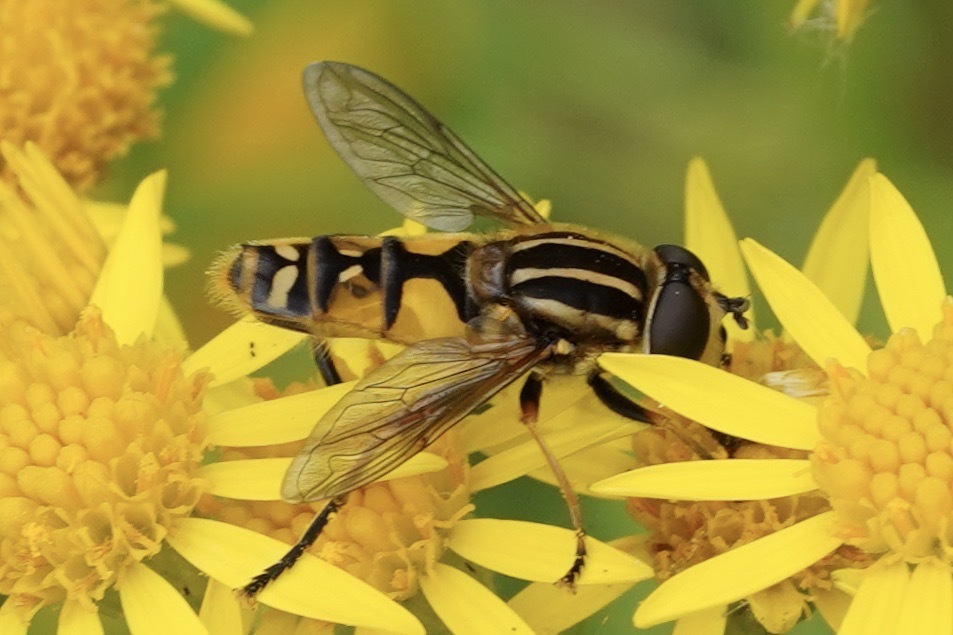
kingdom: Animalia
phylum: Arthropoda
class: Insecta
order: Diptera
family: Syrphidae
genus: Helophilus
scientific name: Helophilus pendulus
